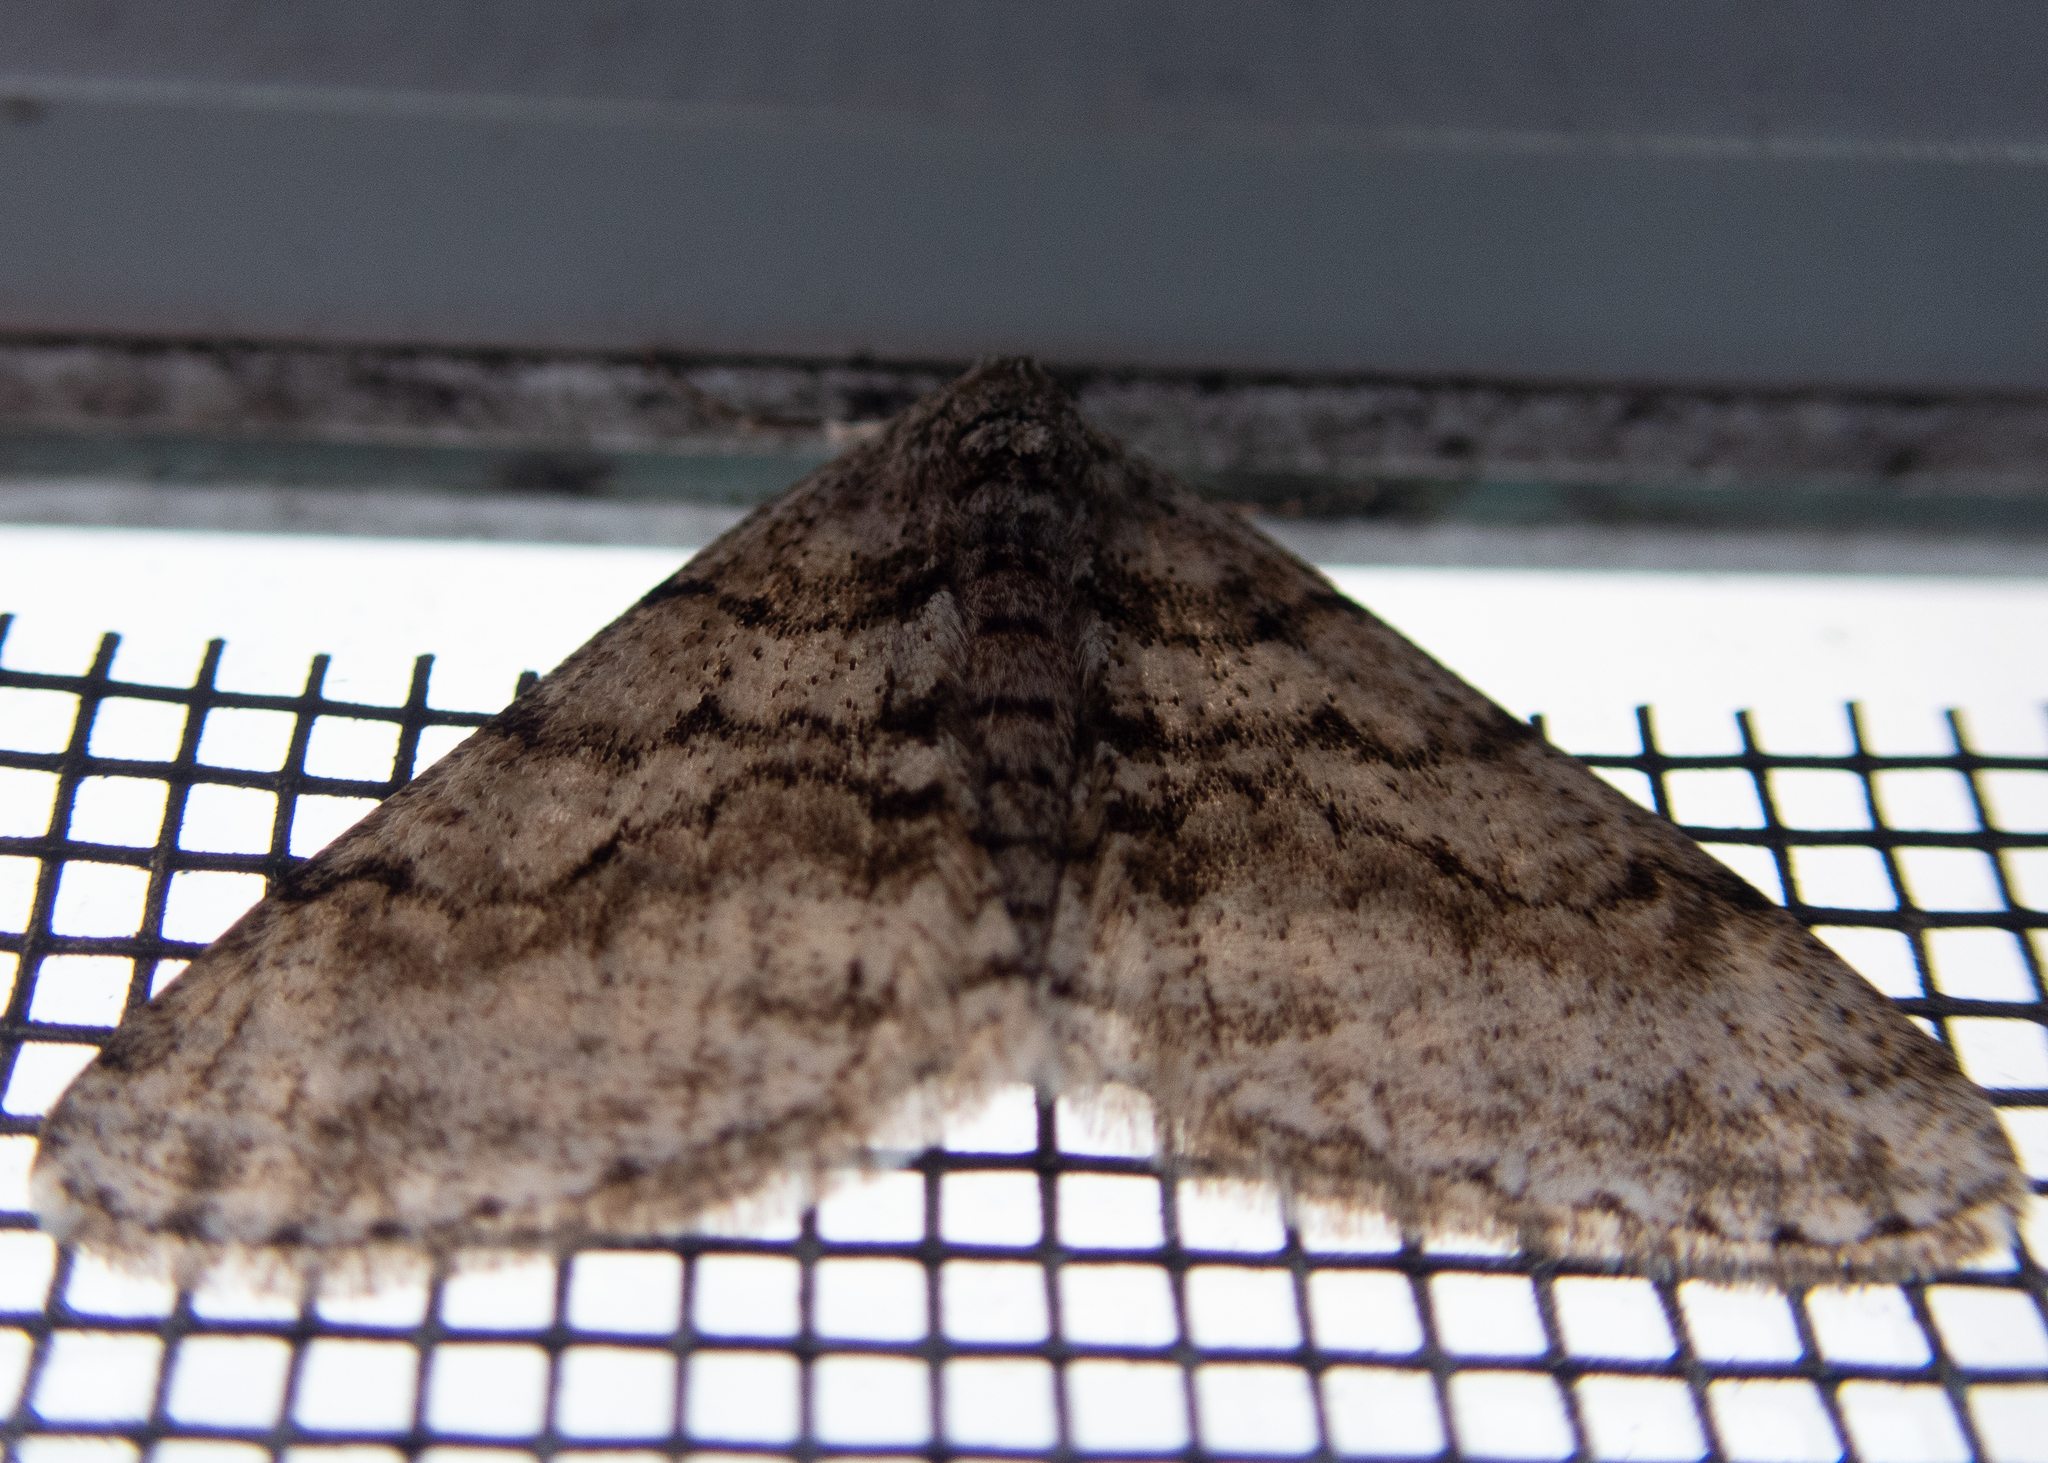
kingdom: Animalia
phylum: Arthropoda
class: Insecta
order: Lepidoptera
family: Geometridae
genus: Phigalia
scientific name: Phigalia titea
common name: Spiny looper
